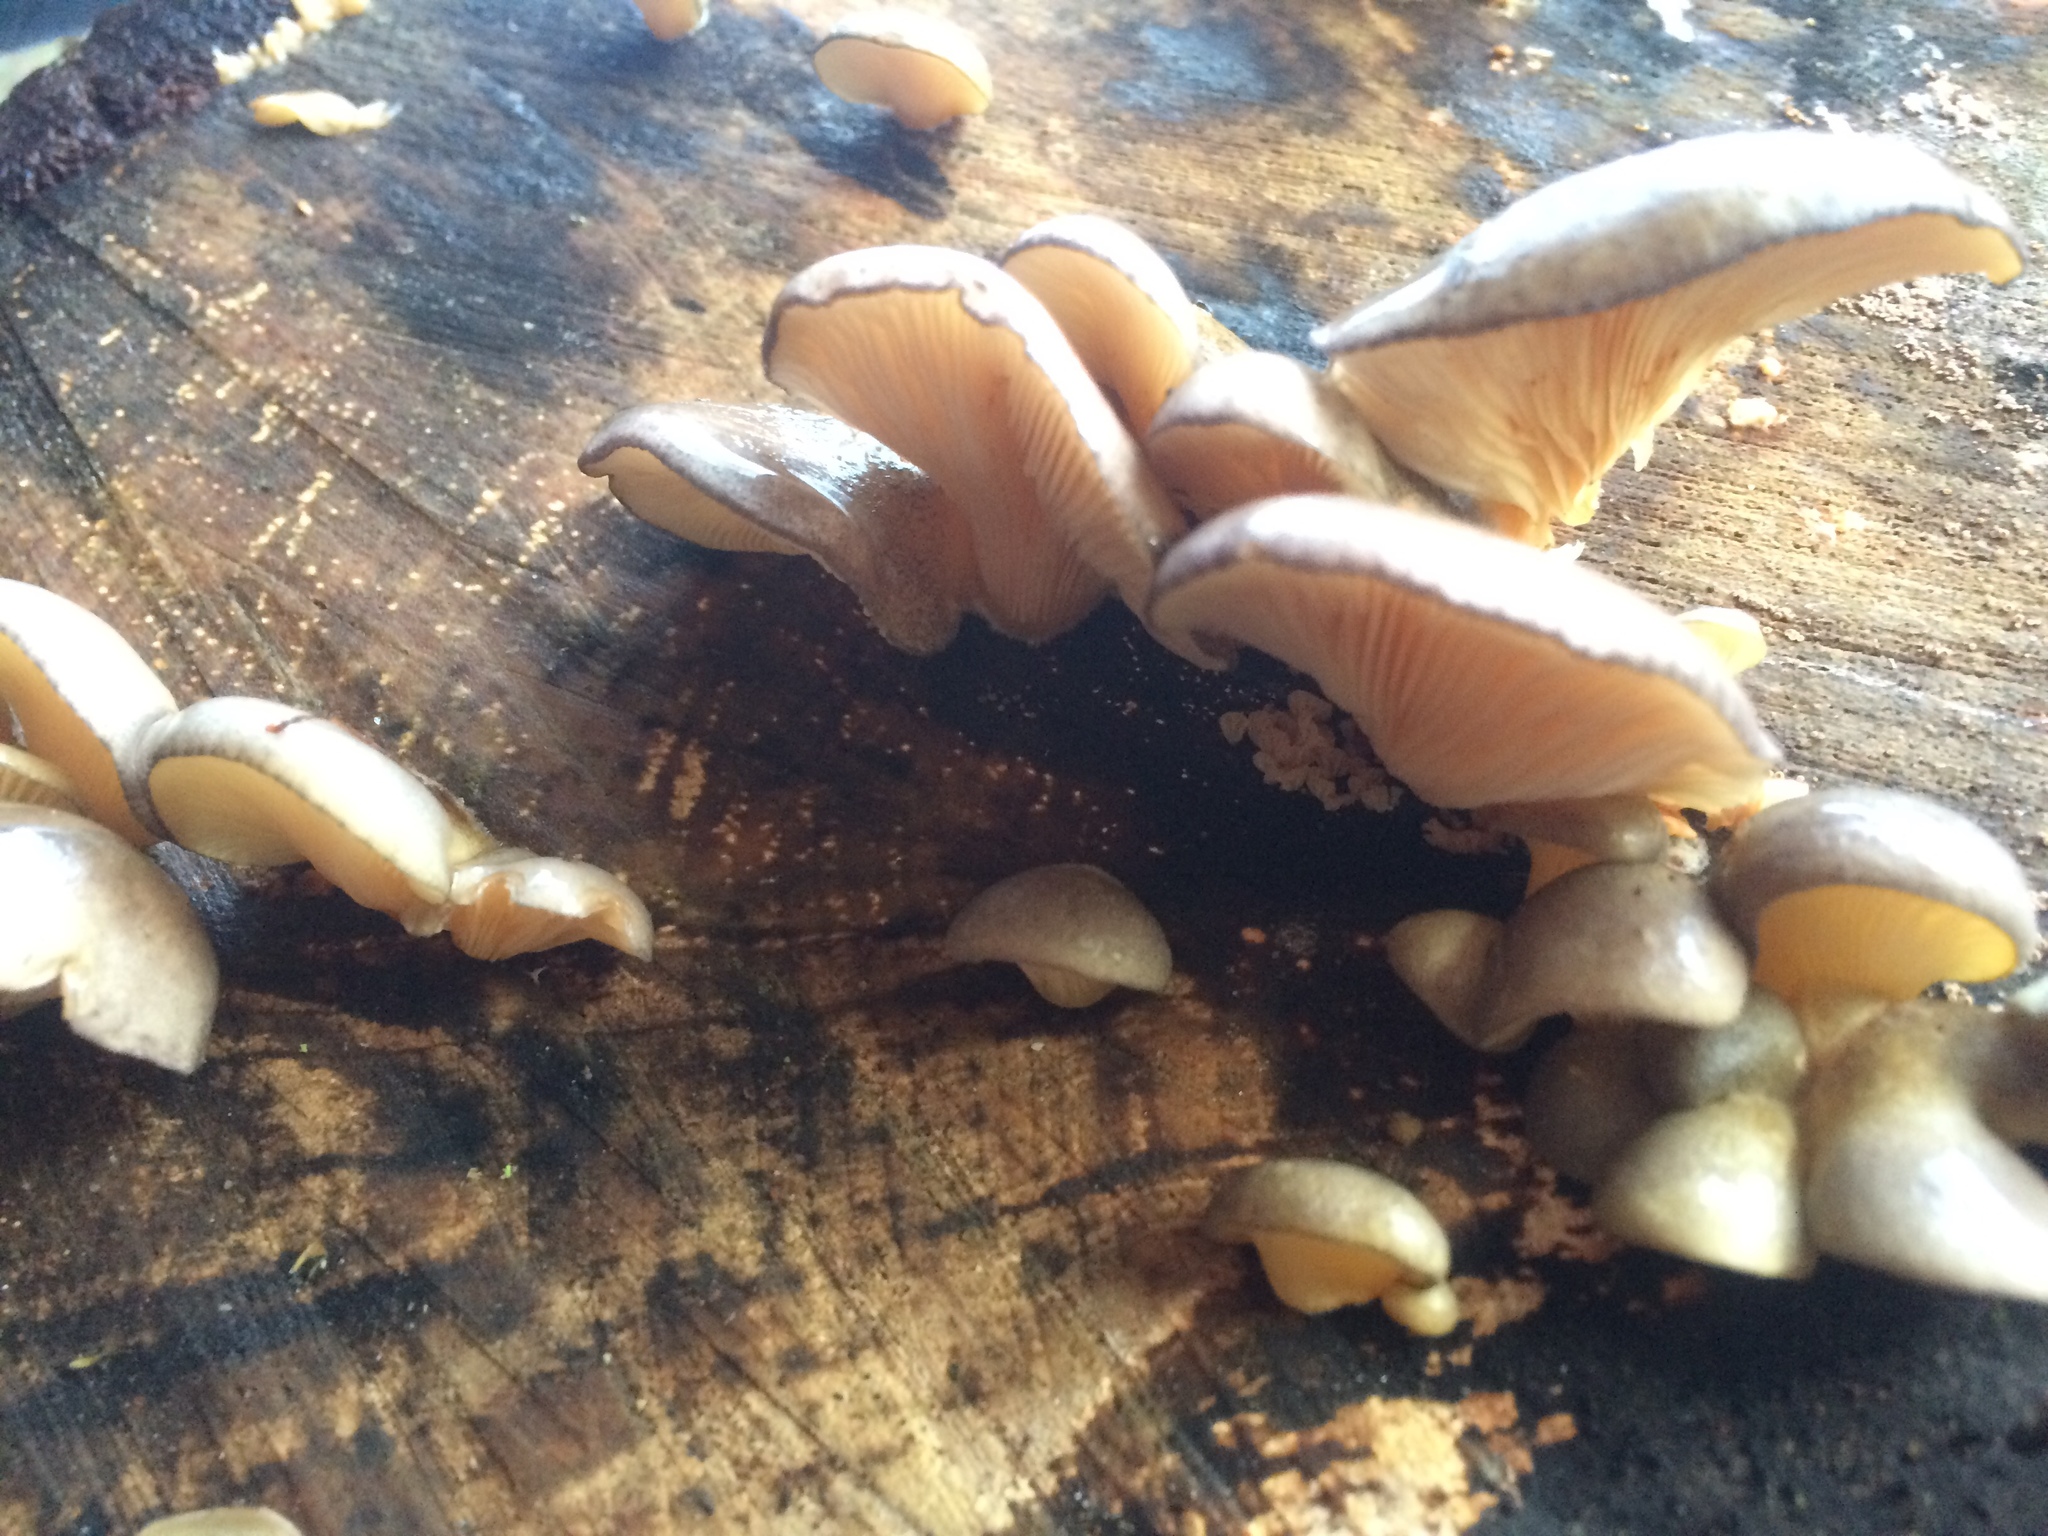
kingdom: Fungi
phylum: Basidiomycota
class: Agaricomycetes
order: Agaricales
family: Sarcomyxaceae
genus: Sarcomyxa
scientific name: Sarcomyxa serotina
